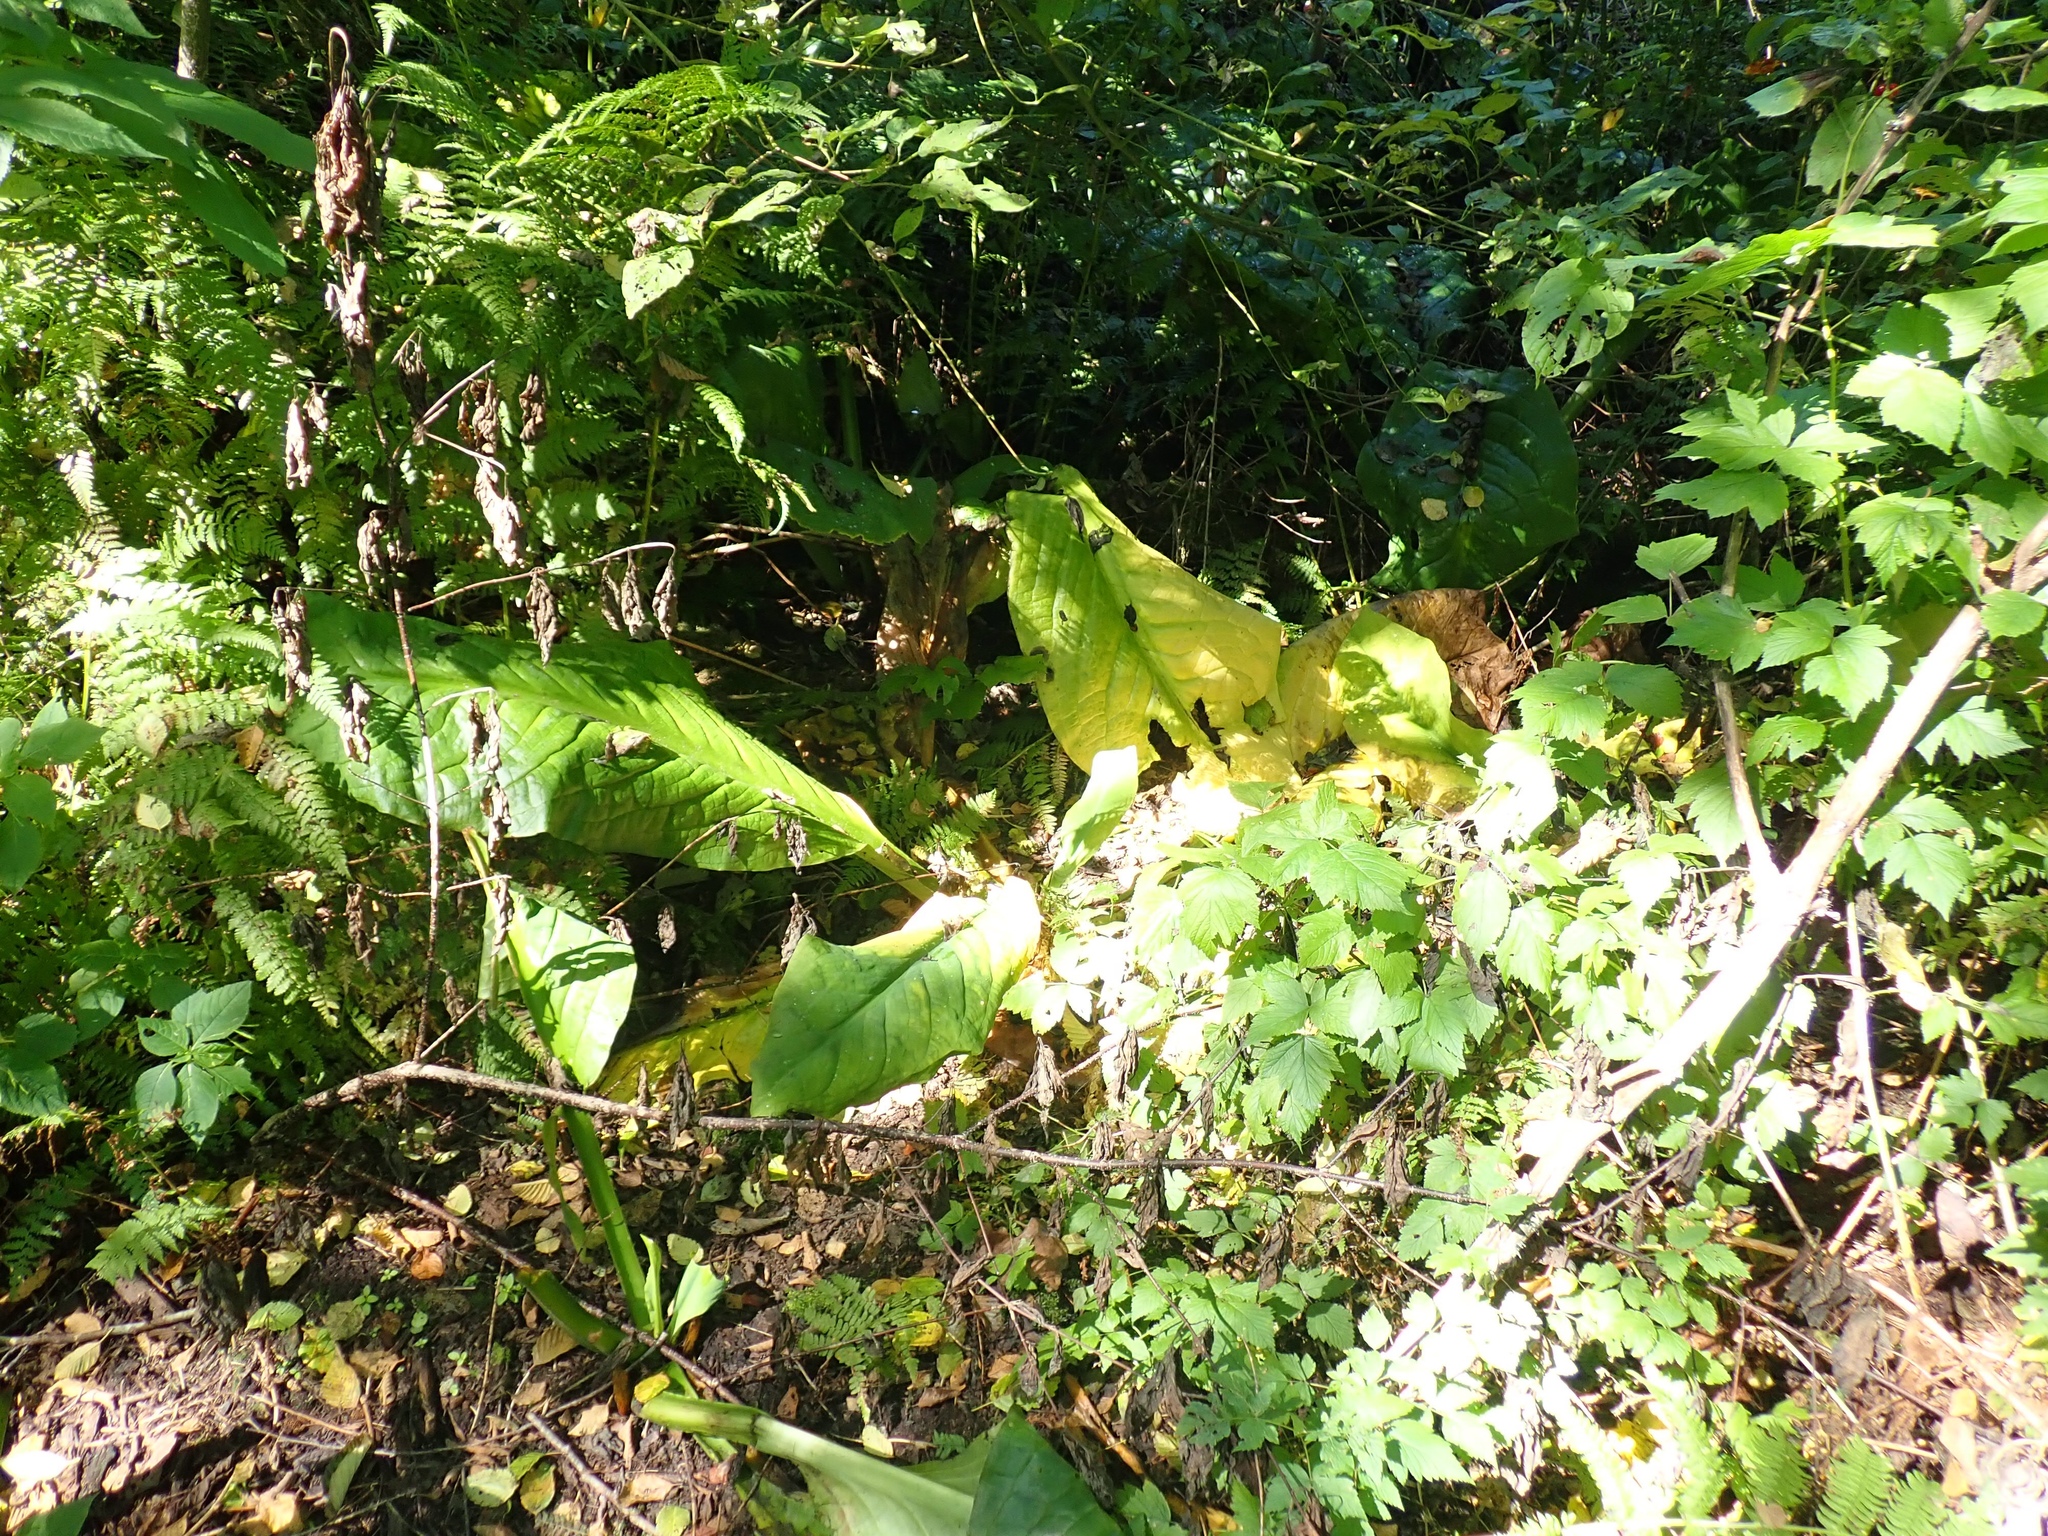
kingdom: Plantae
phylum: Tracheophyta
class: Liliopsida
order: Alismatales
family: Araceae
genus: Lysichiton
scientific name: Lysichiton americanus
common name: American skunk cabbage
